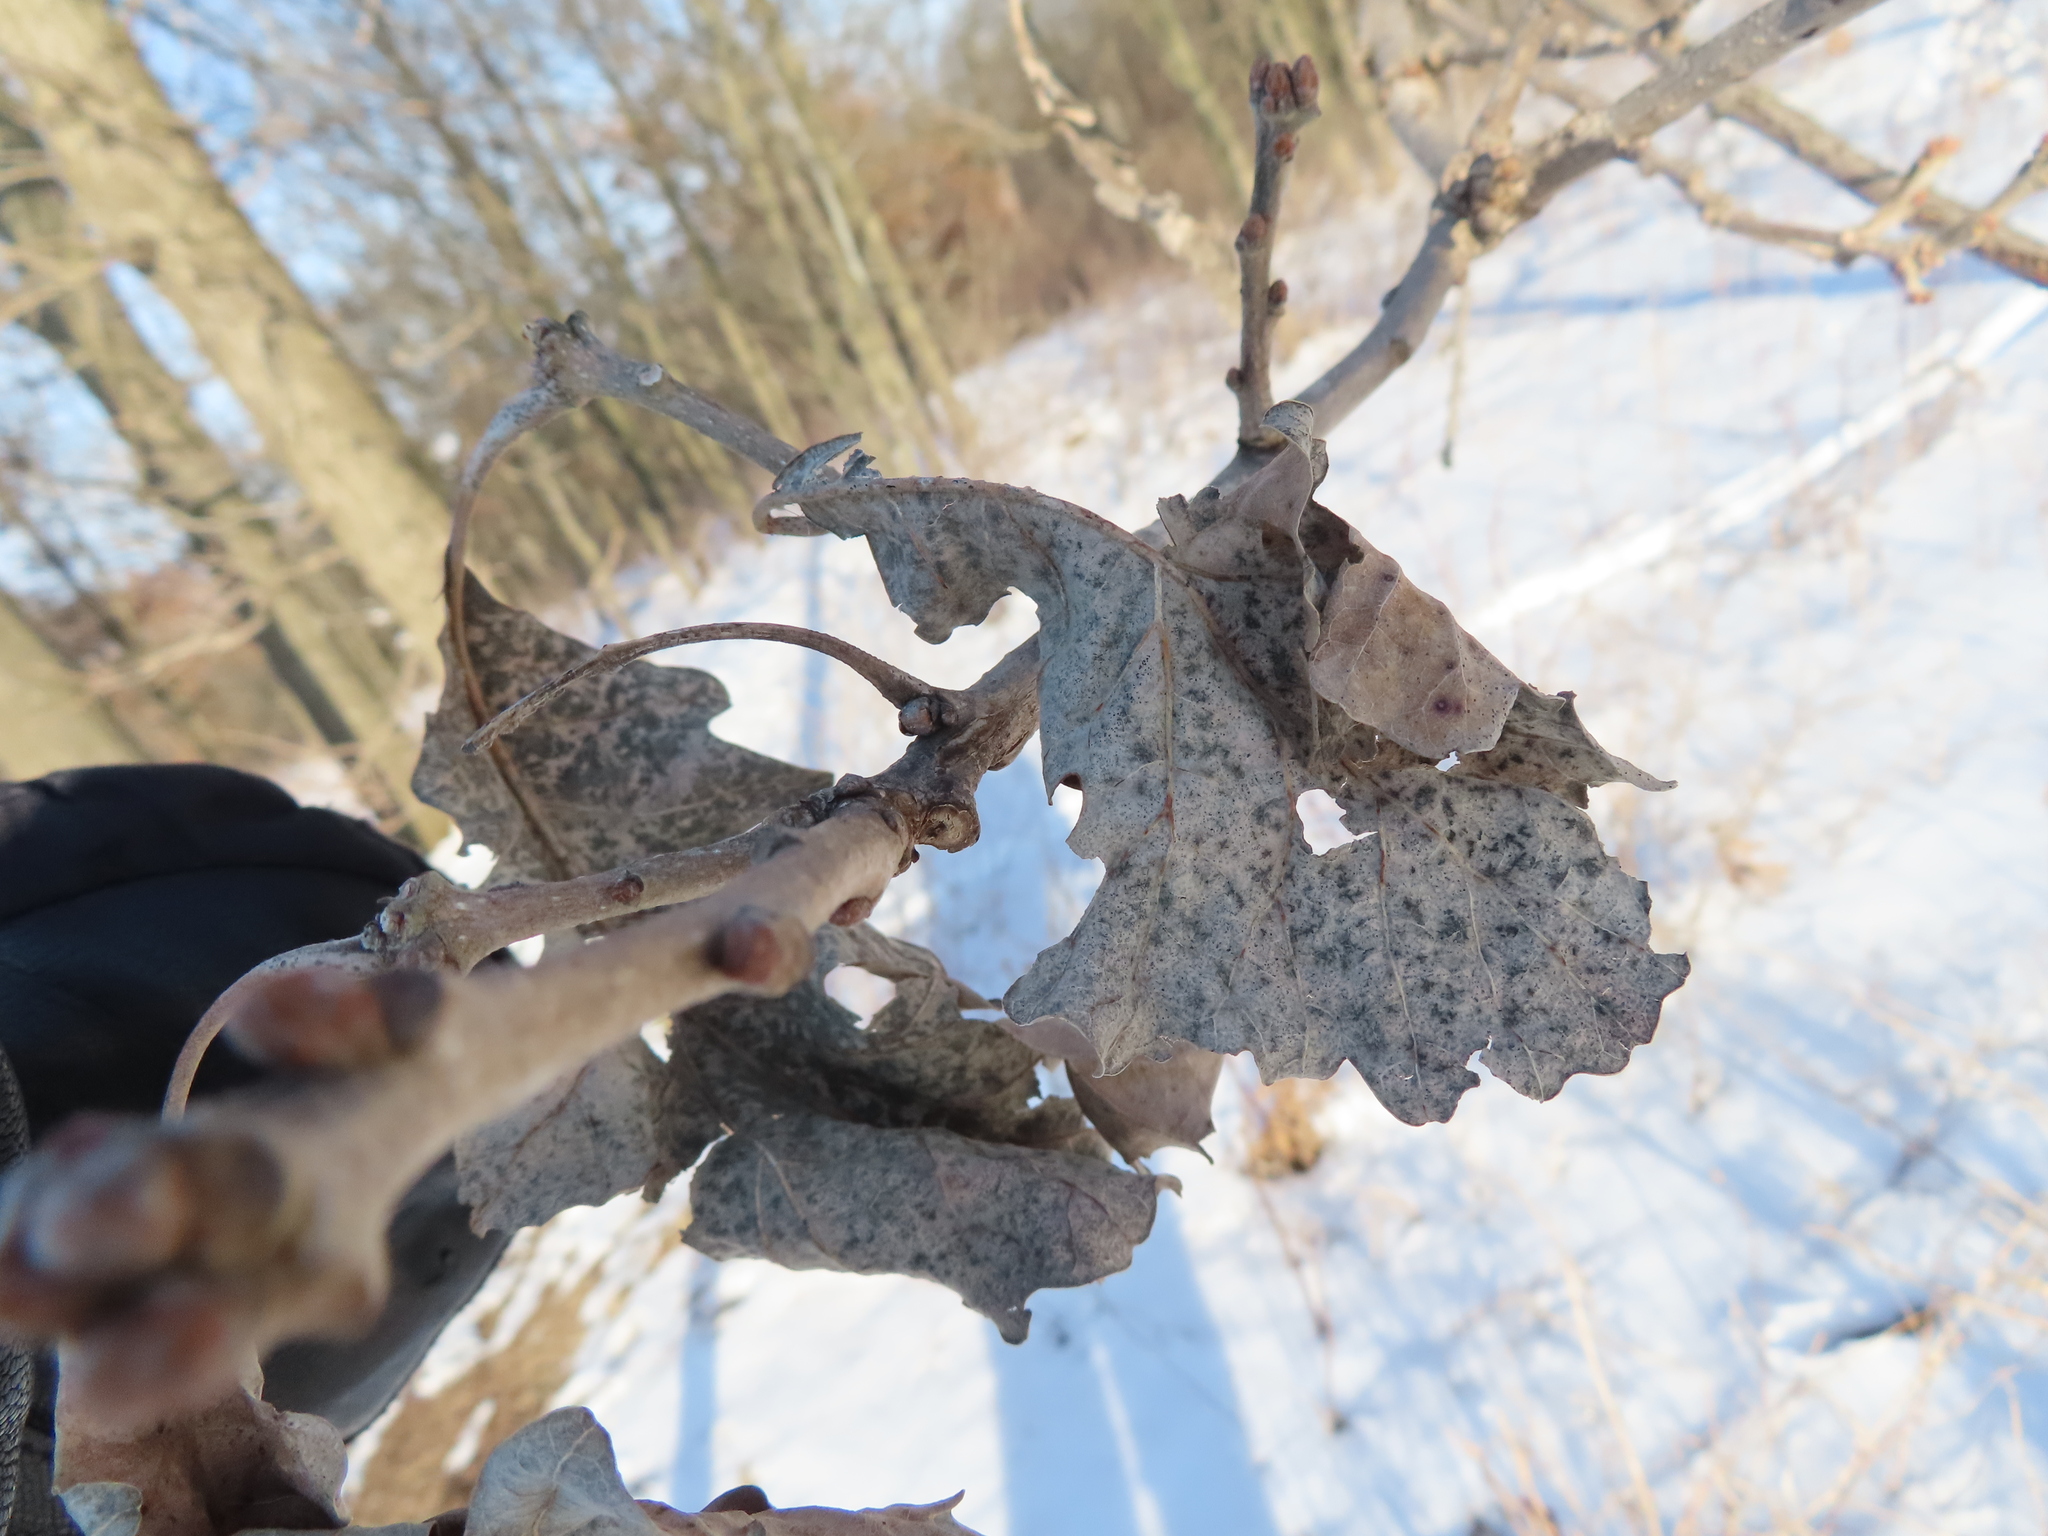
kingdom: Plantae
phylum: Tracheophyta
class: Magnoliopsida
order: Fagales
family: Fagaceae
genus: Quercus
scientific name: Quercus macrocarpa
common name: Bur oak
